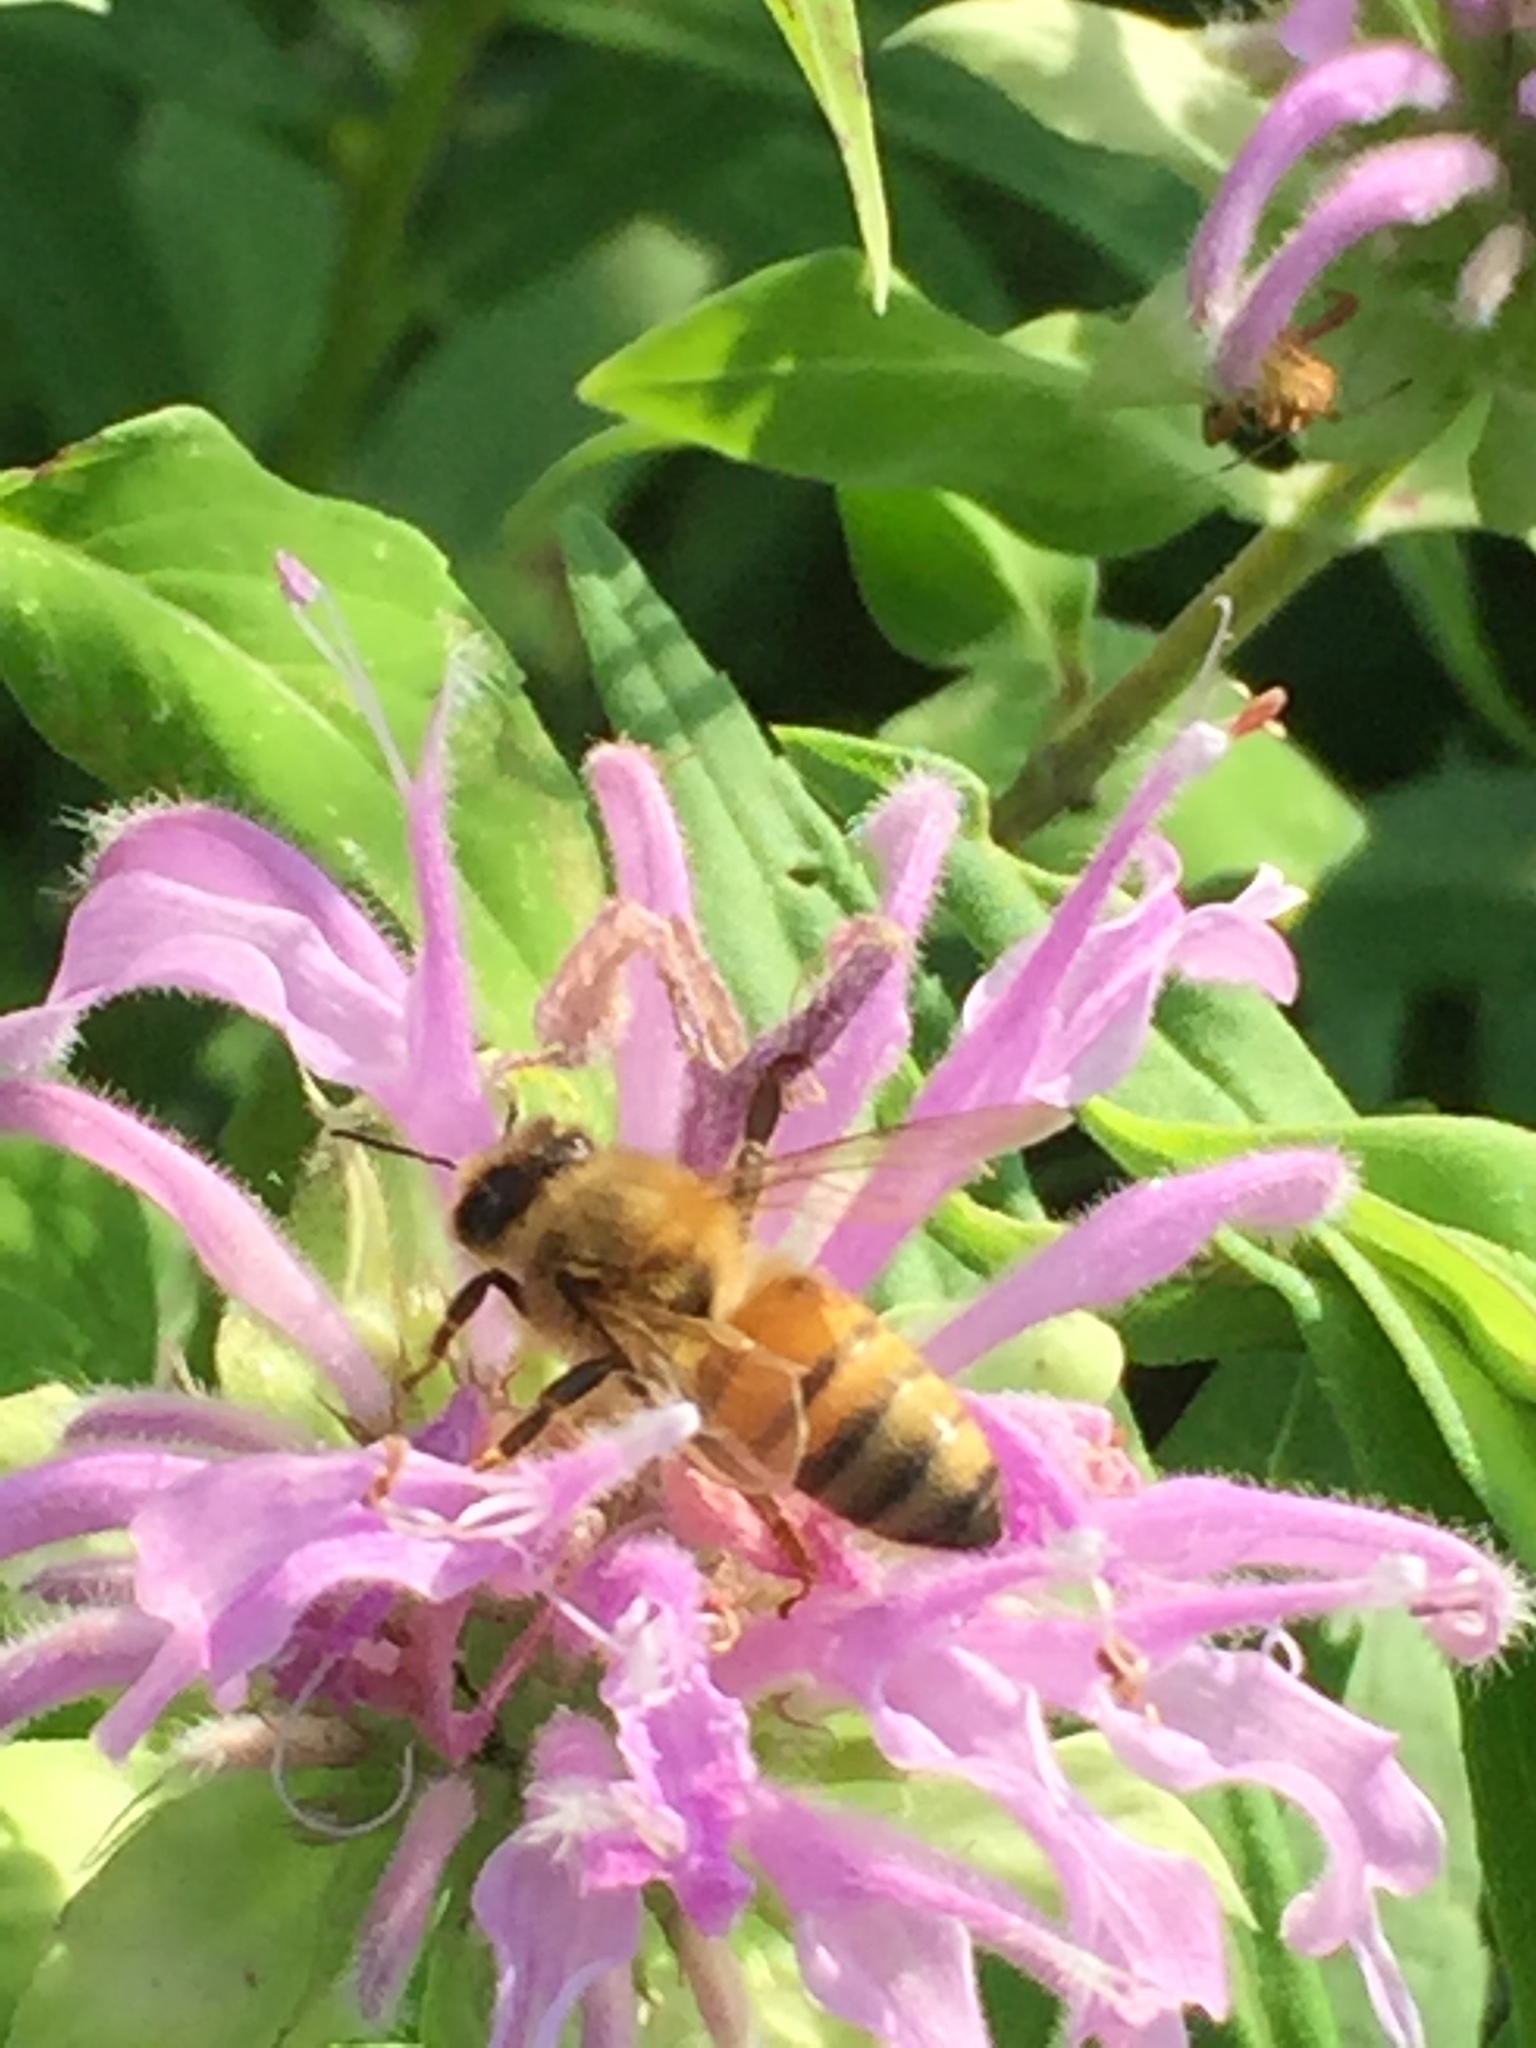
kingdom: Animalia
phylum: Arthropoda
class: Insecta
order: Hymenoptera
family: Apidae
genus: Apis
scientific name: Apis mellifera
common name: Honey bee
